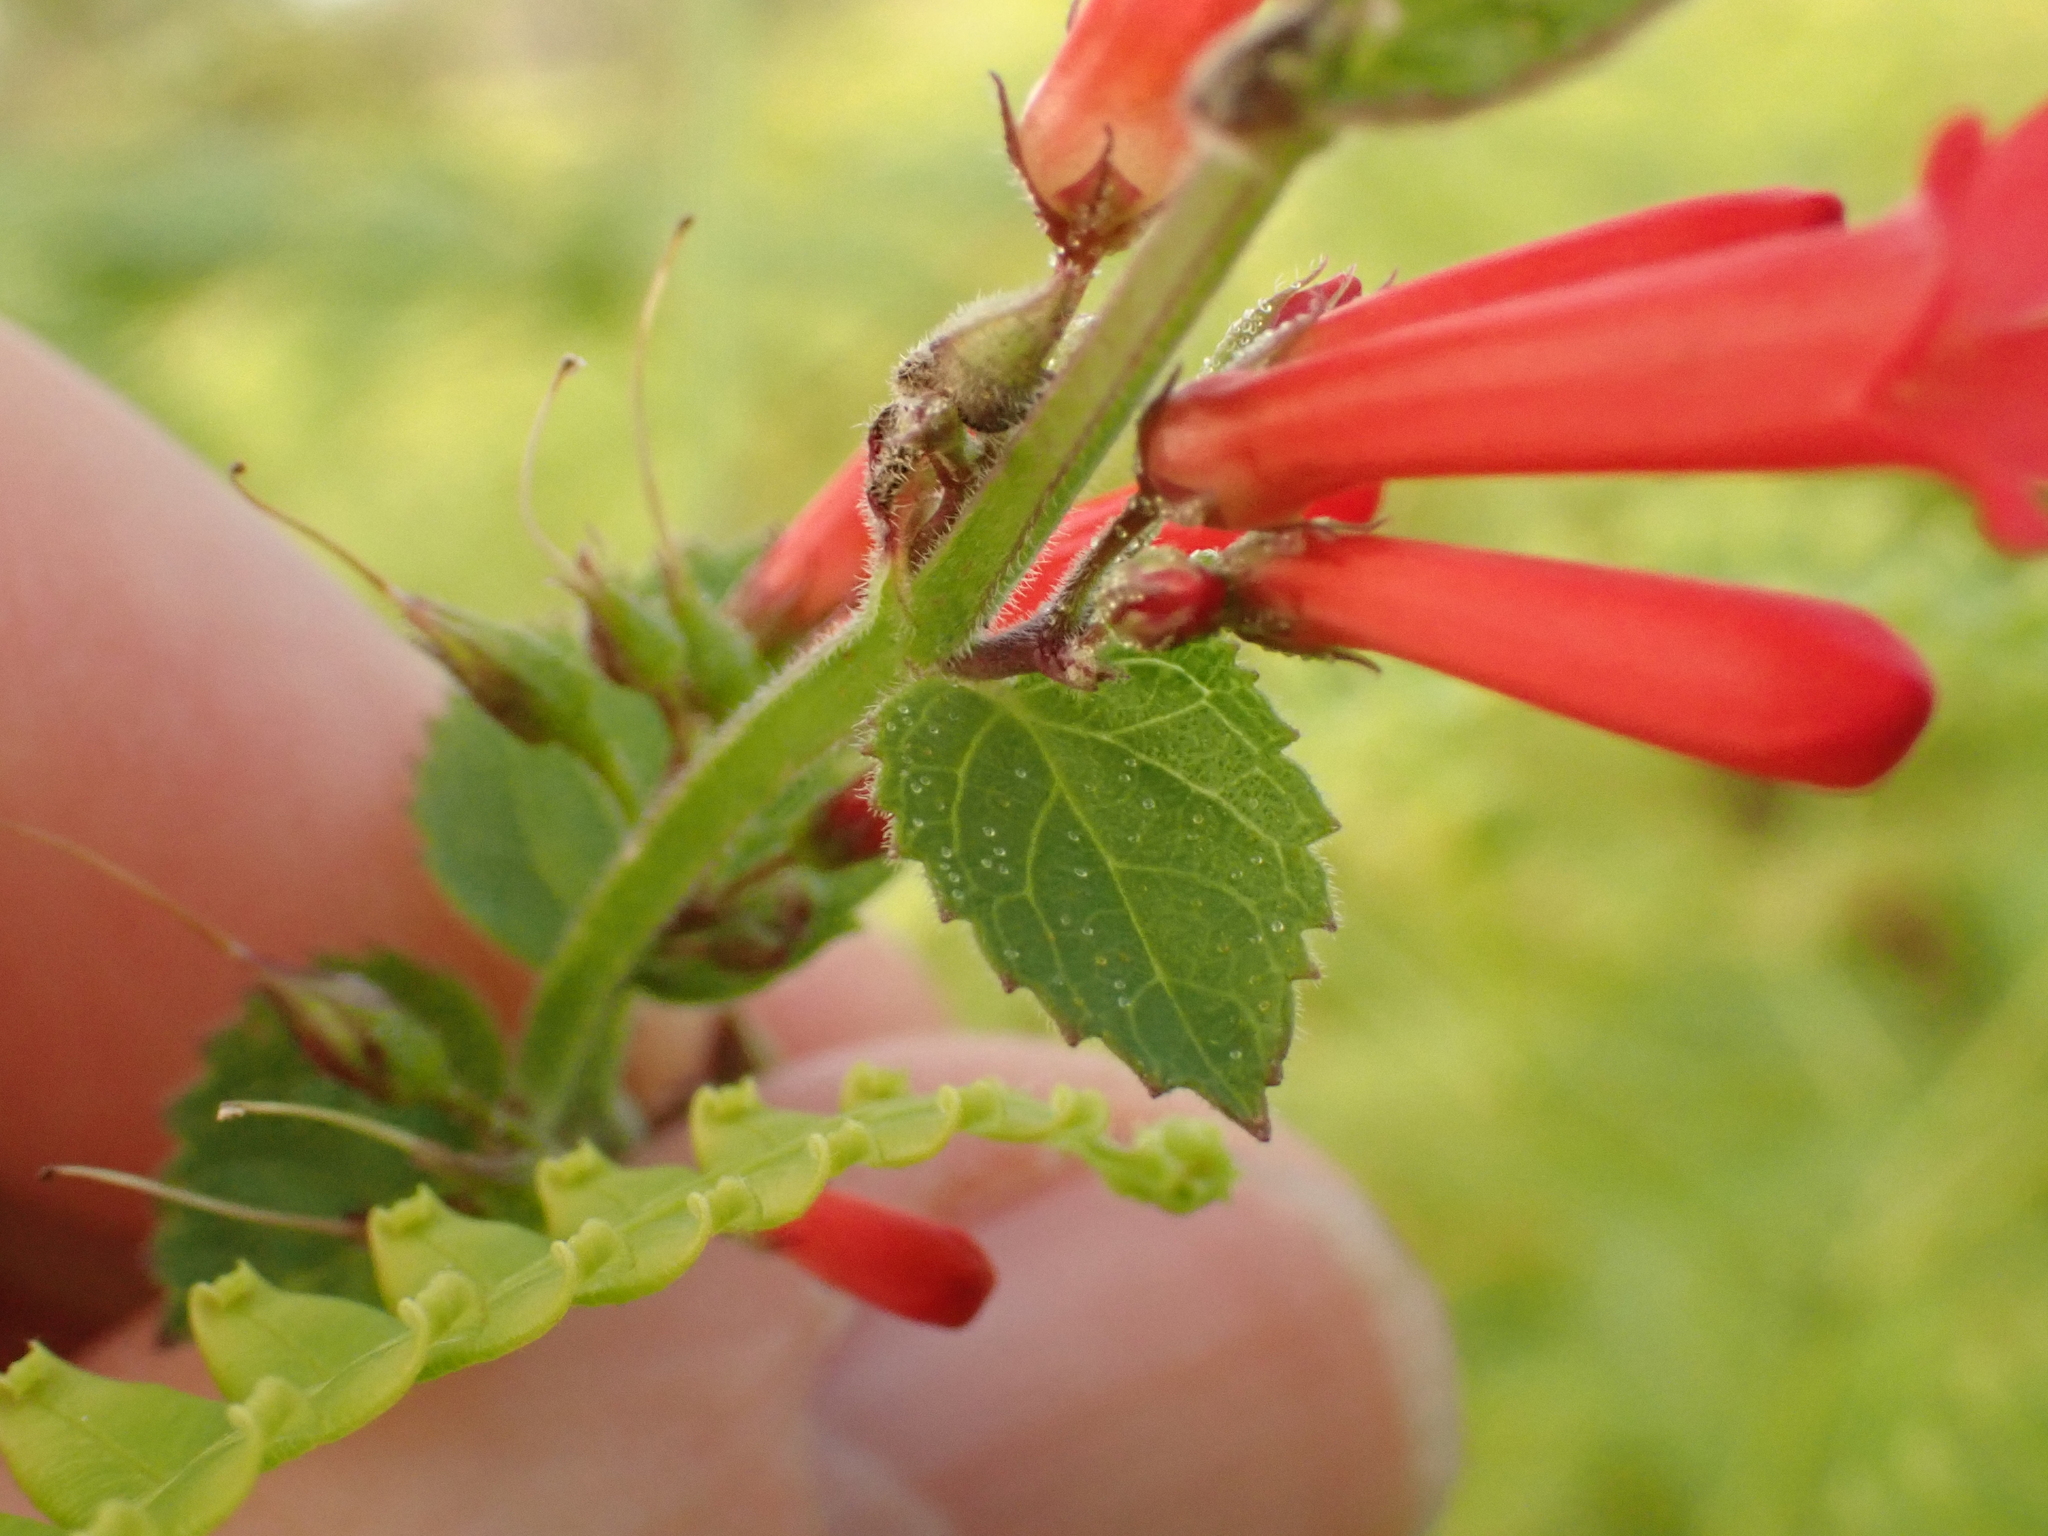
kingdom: Plantae
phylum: Tracheophyta
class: Magnoliopsida
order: Lamiales
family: Plantaginaceae
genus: Russelia
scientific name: Russelia sarmentosa
